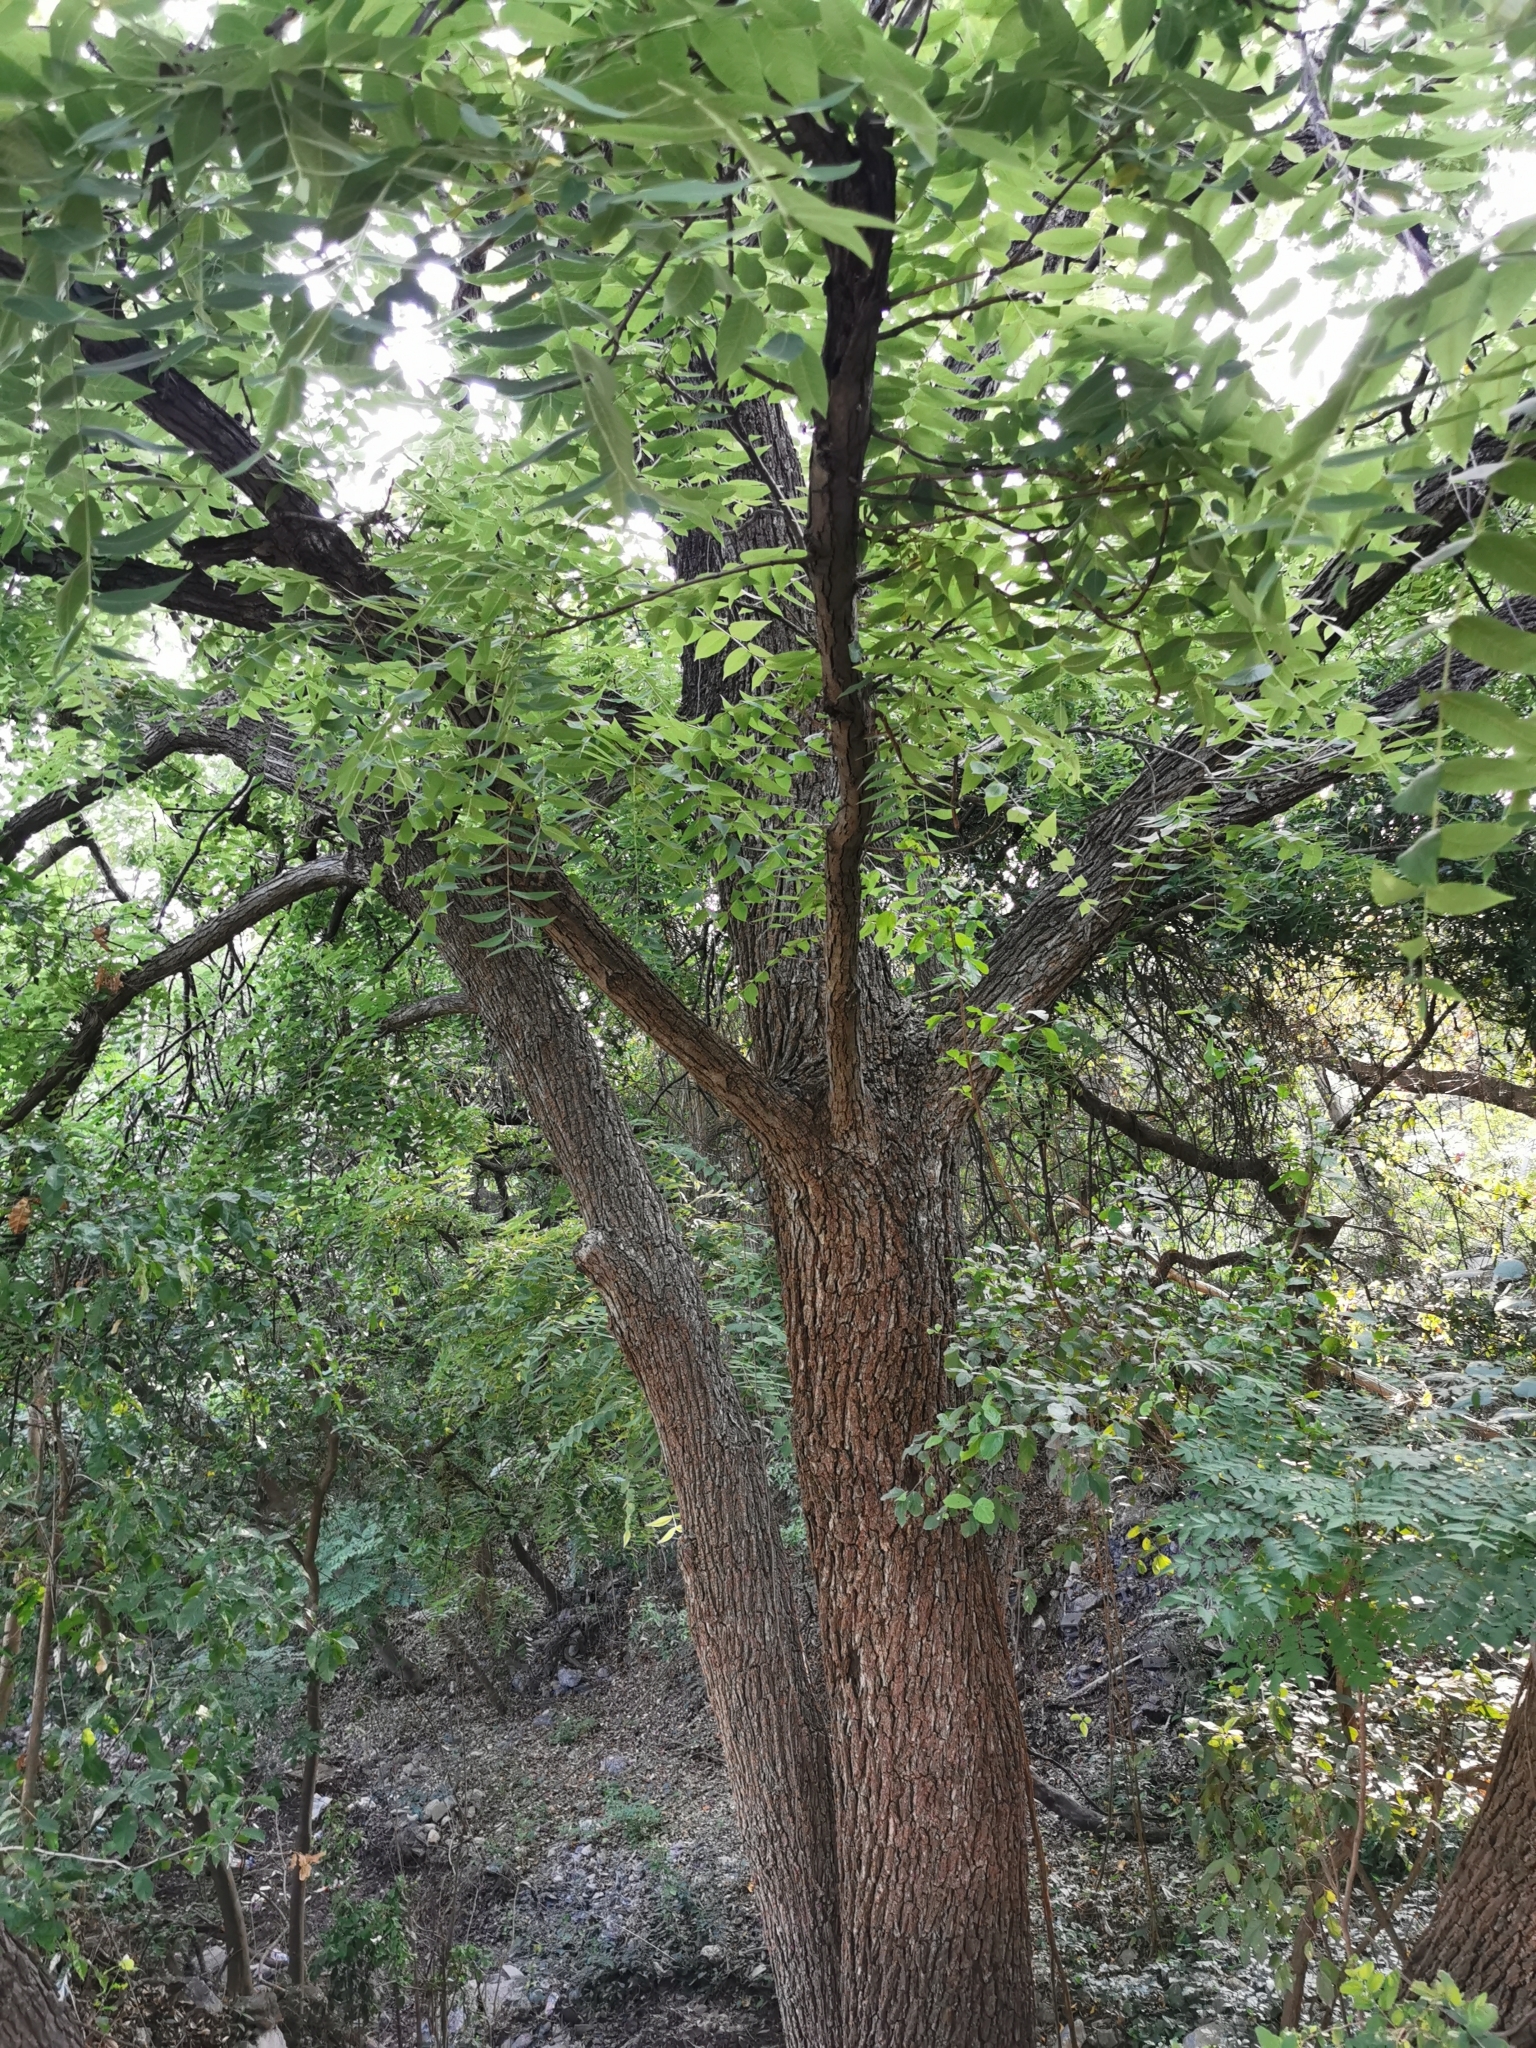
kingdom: Plantae
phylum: Tracheophyta
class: Magnoliopsida
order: Fagales
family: Juglandaceae
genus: Juglans
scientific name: Juglans mollis
